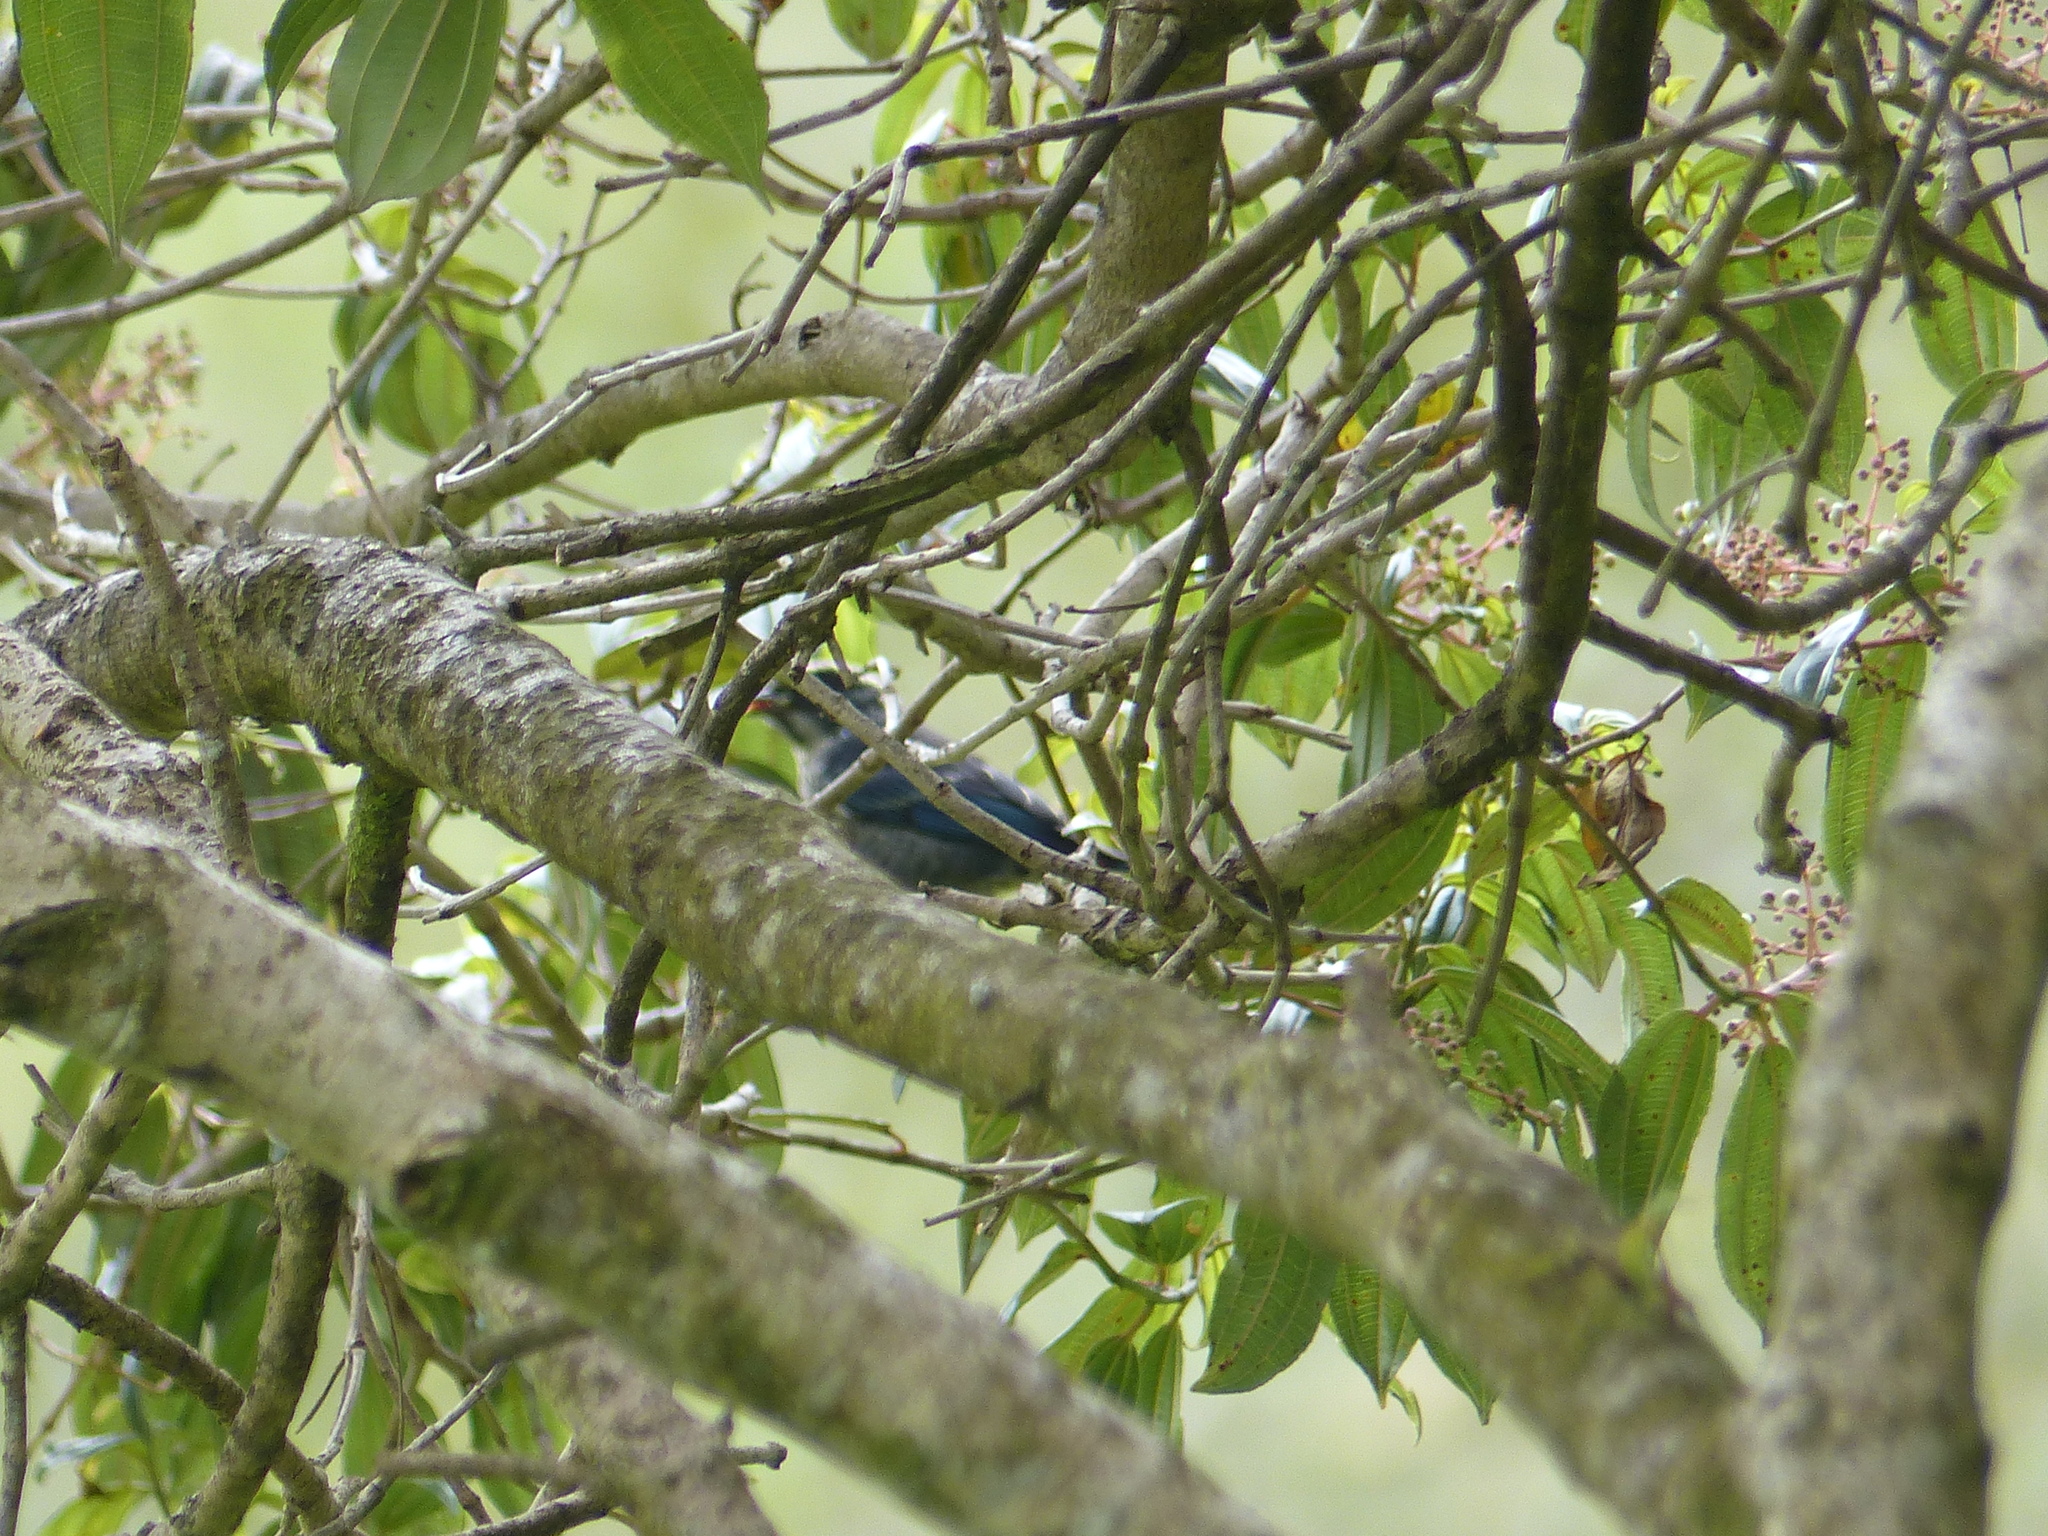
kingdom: Animalia
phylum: Chordata
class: Aves
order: Passeriformes
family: Thraupidae
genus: Tangara
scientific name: Tangara nigroviridis
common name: Beryl-spangled tanager
